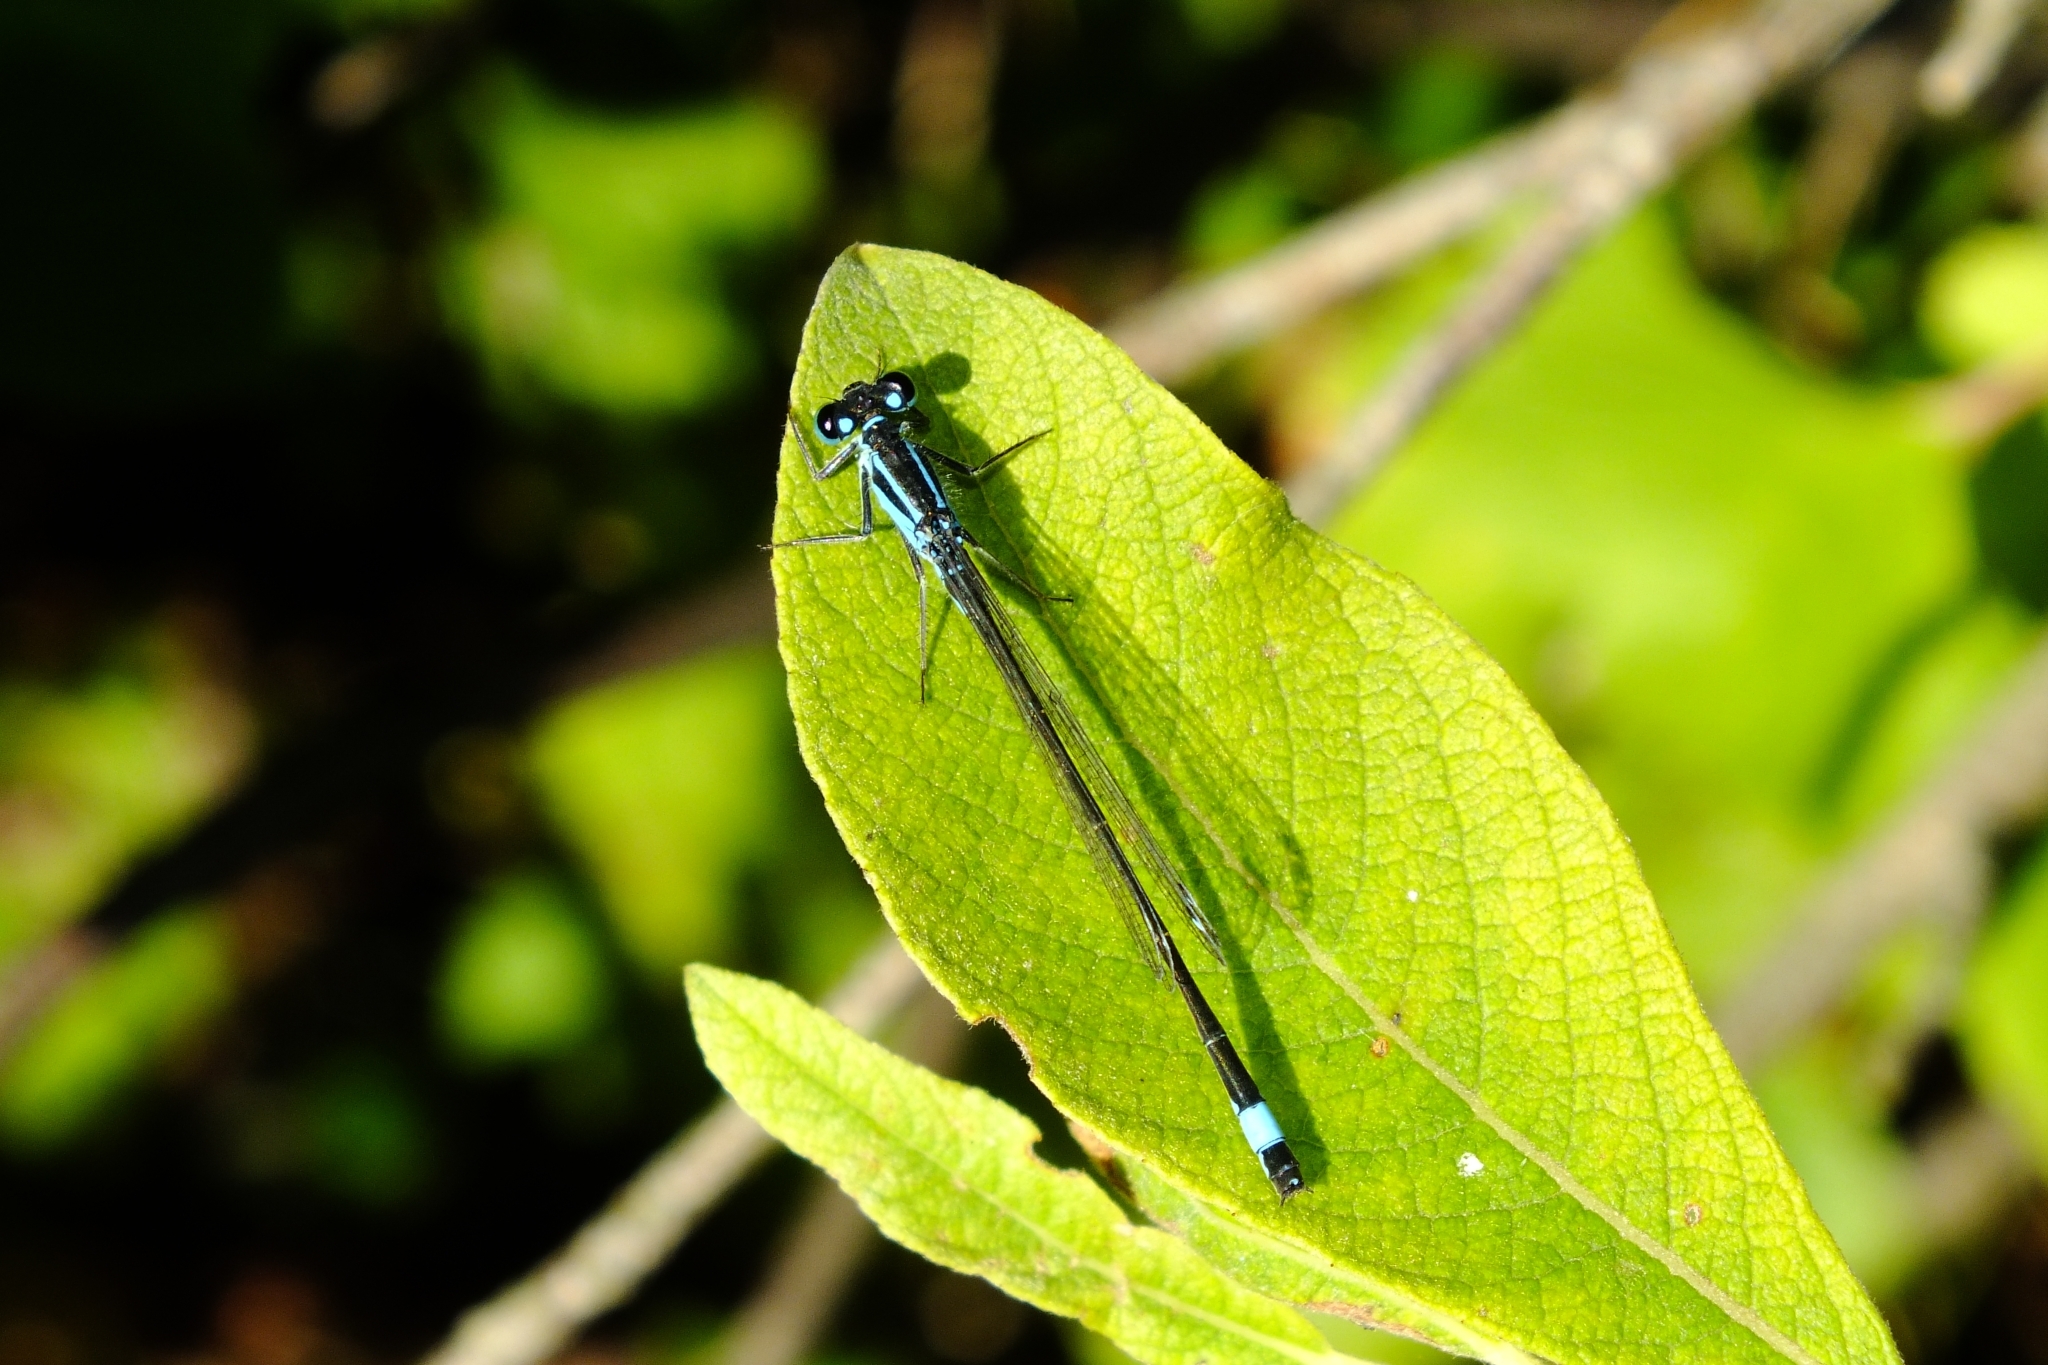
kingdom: Animalia
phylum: Arthropoda
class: Insecta
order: Odonata
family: Coenagrionidae
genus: Ischnura
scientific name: Ischnura elegans
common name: Blue-tailed damselfly
